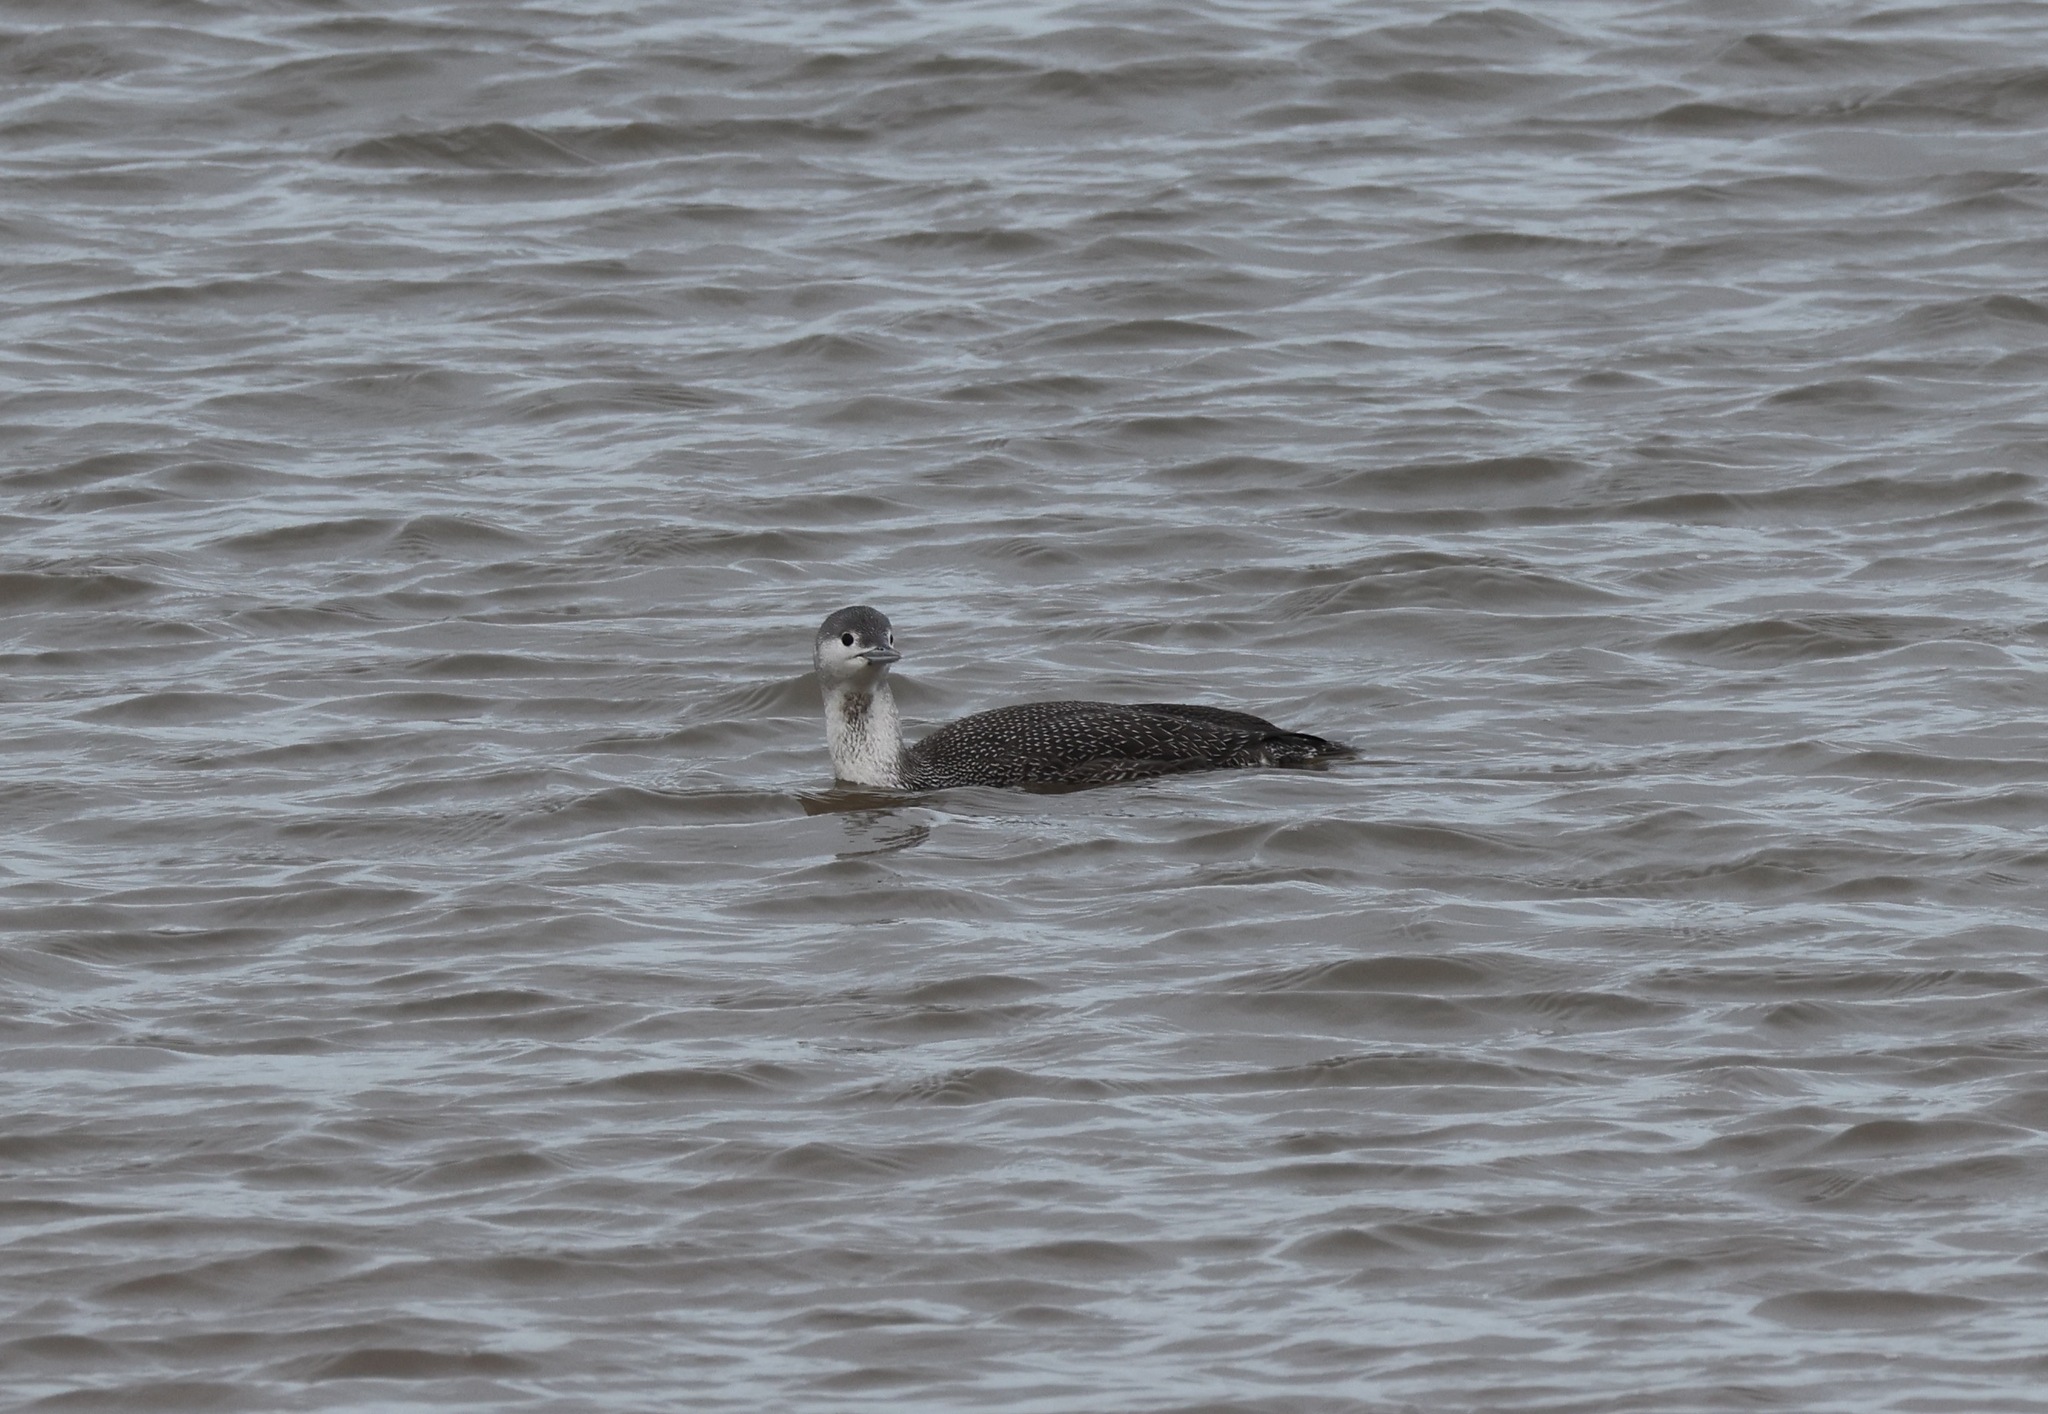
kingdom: Animalia
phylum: Chordata
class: Aves
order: Gaviiformes
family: Gaviidae
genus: Gavia
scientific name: Gavia stellata
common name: Red-throated loon
